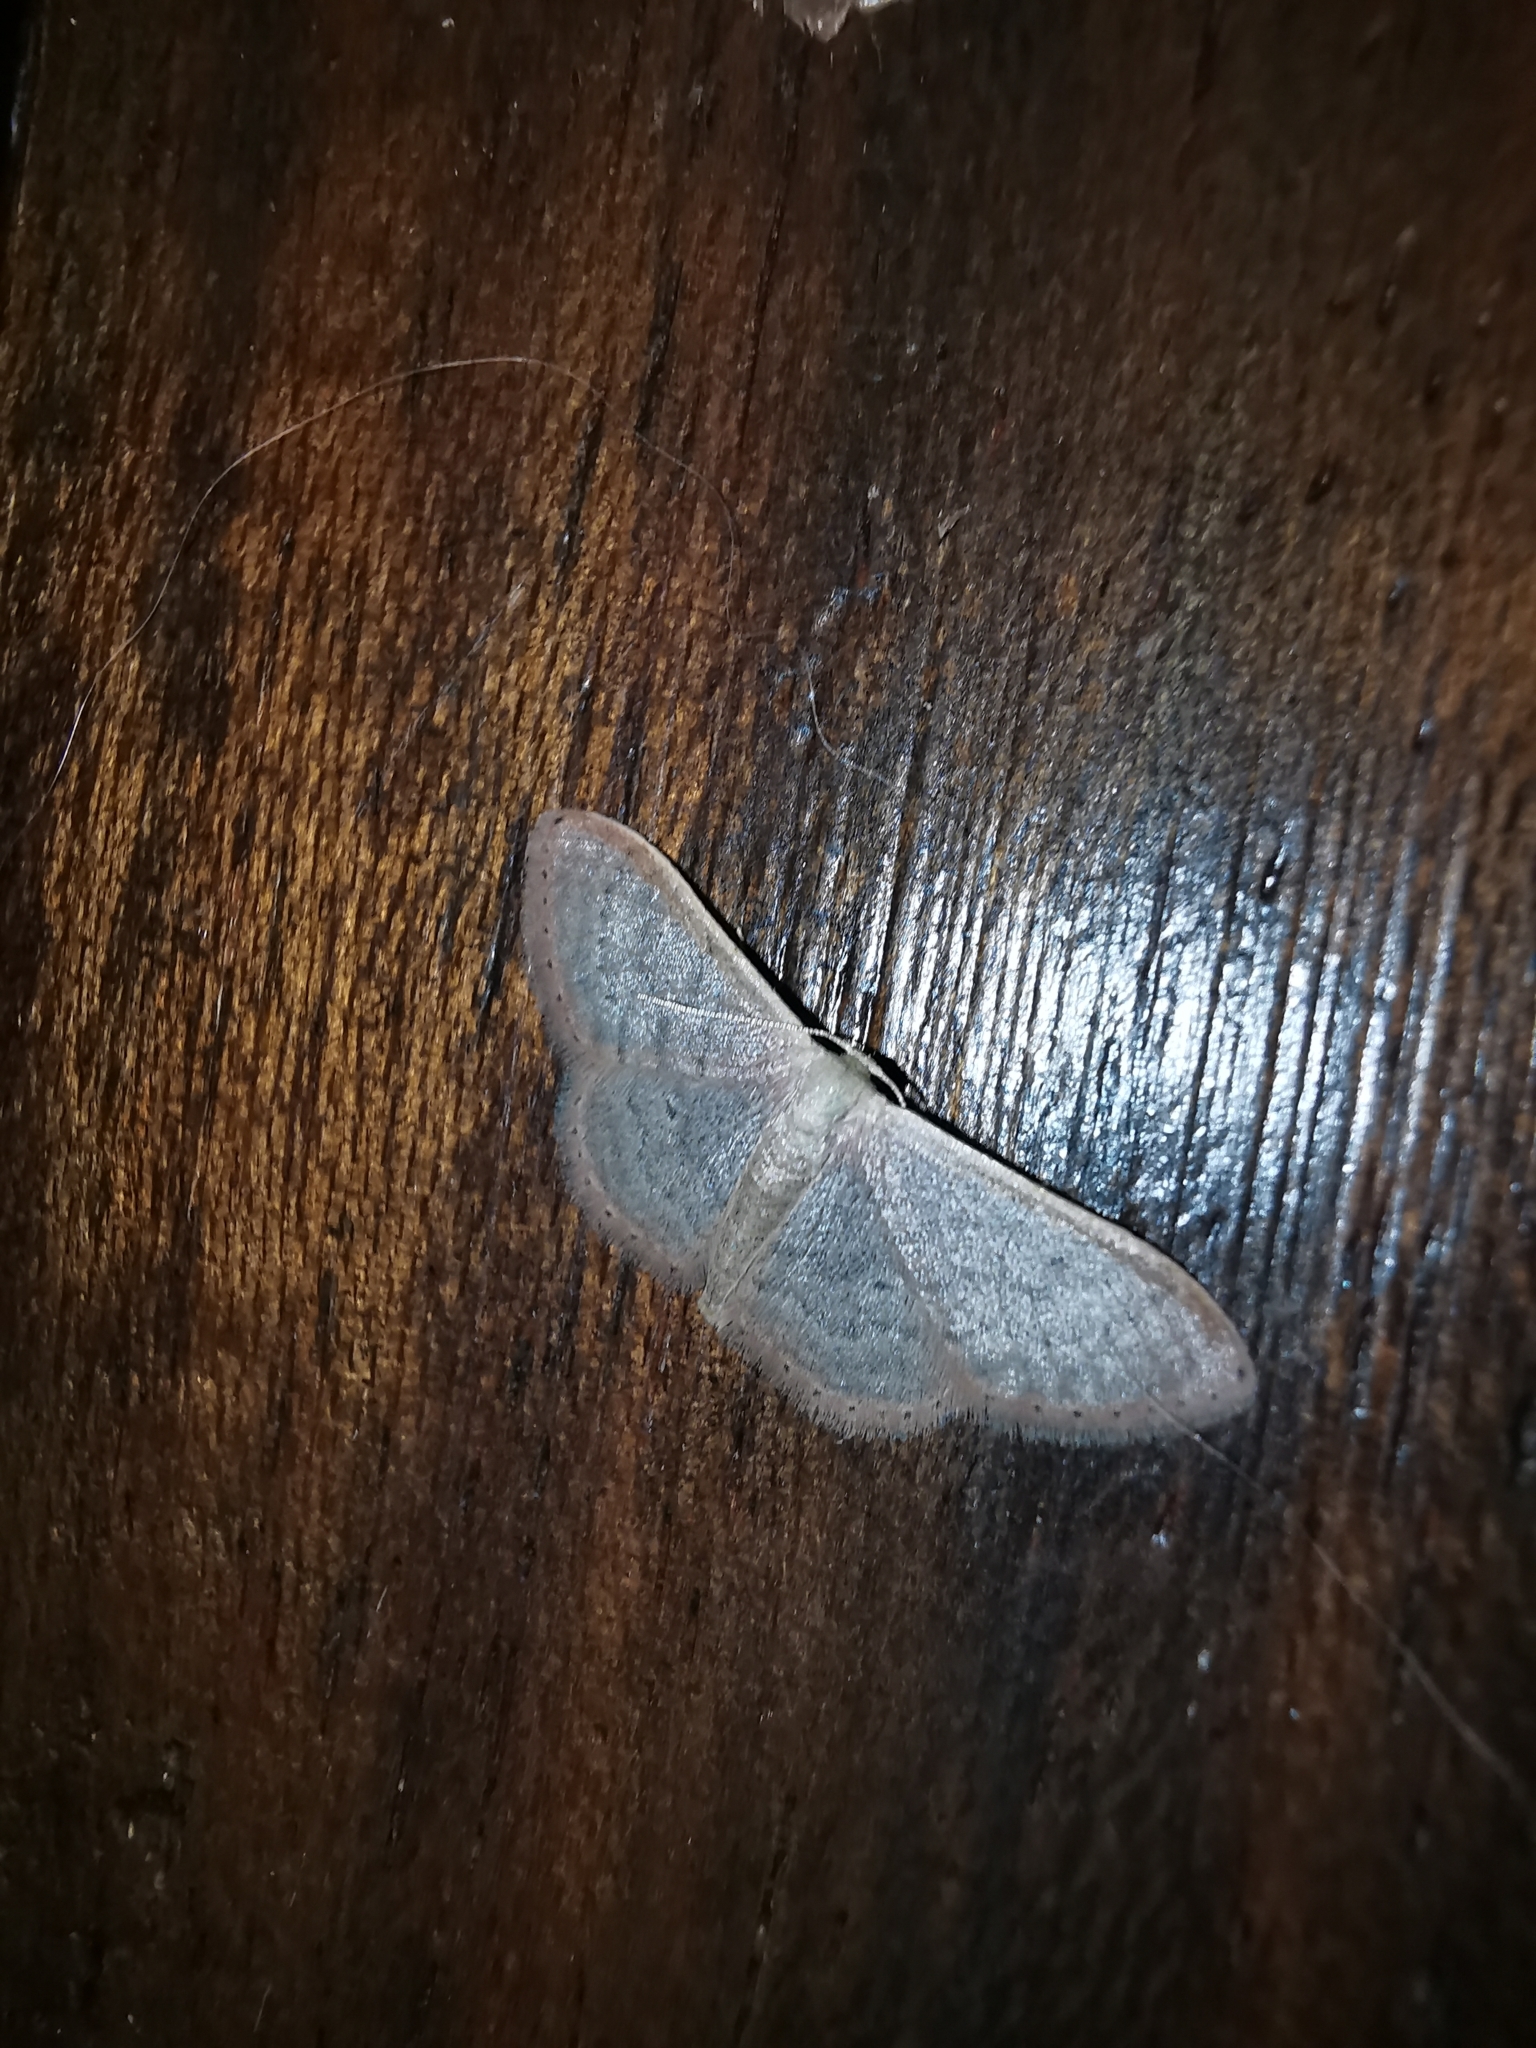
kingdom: Animalia
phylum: Arthropoda
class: Insecta
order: Lepidoptera
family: Geometridae
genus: Idaea
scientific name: Idaea distinctaria
